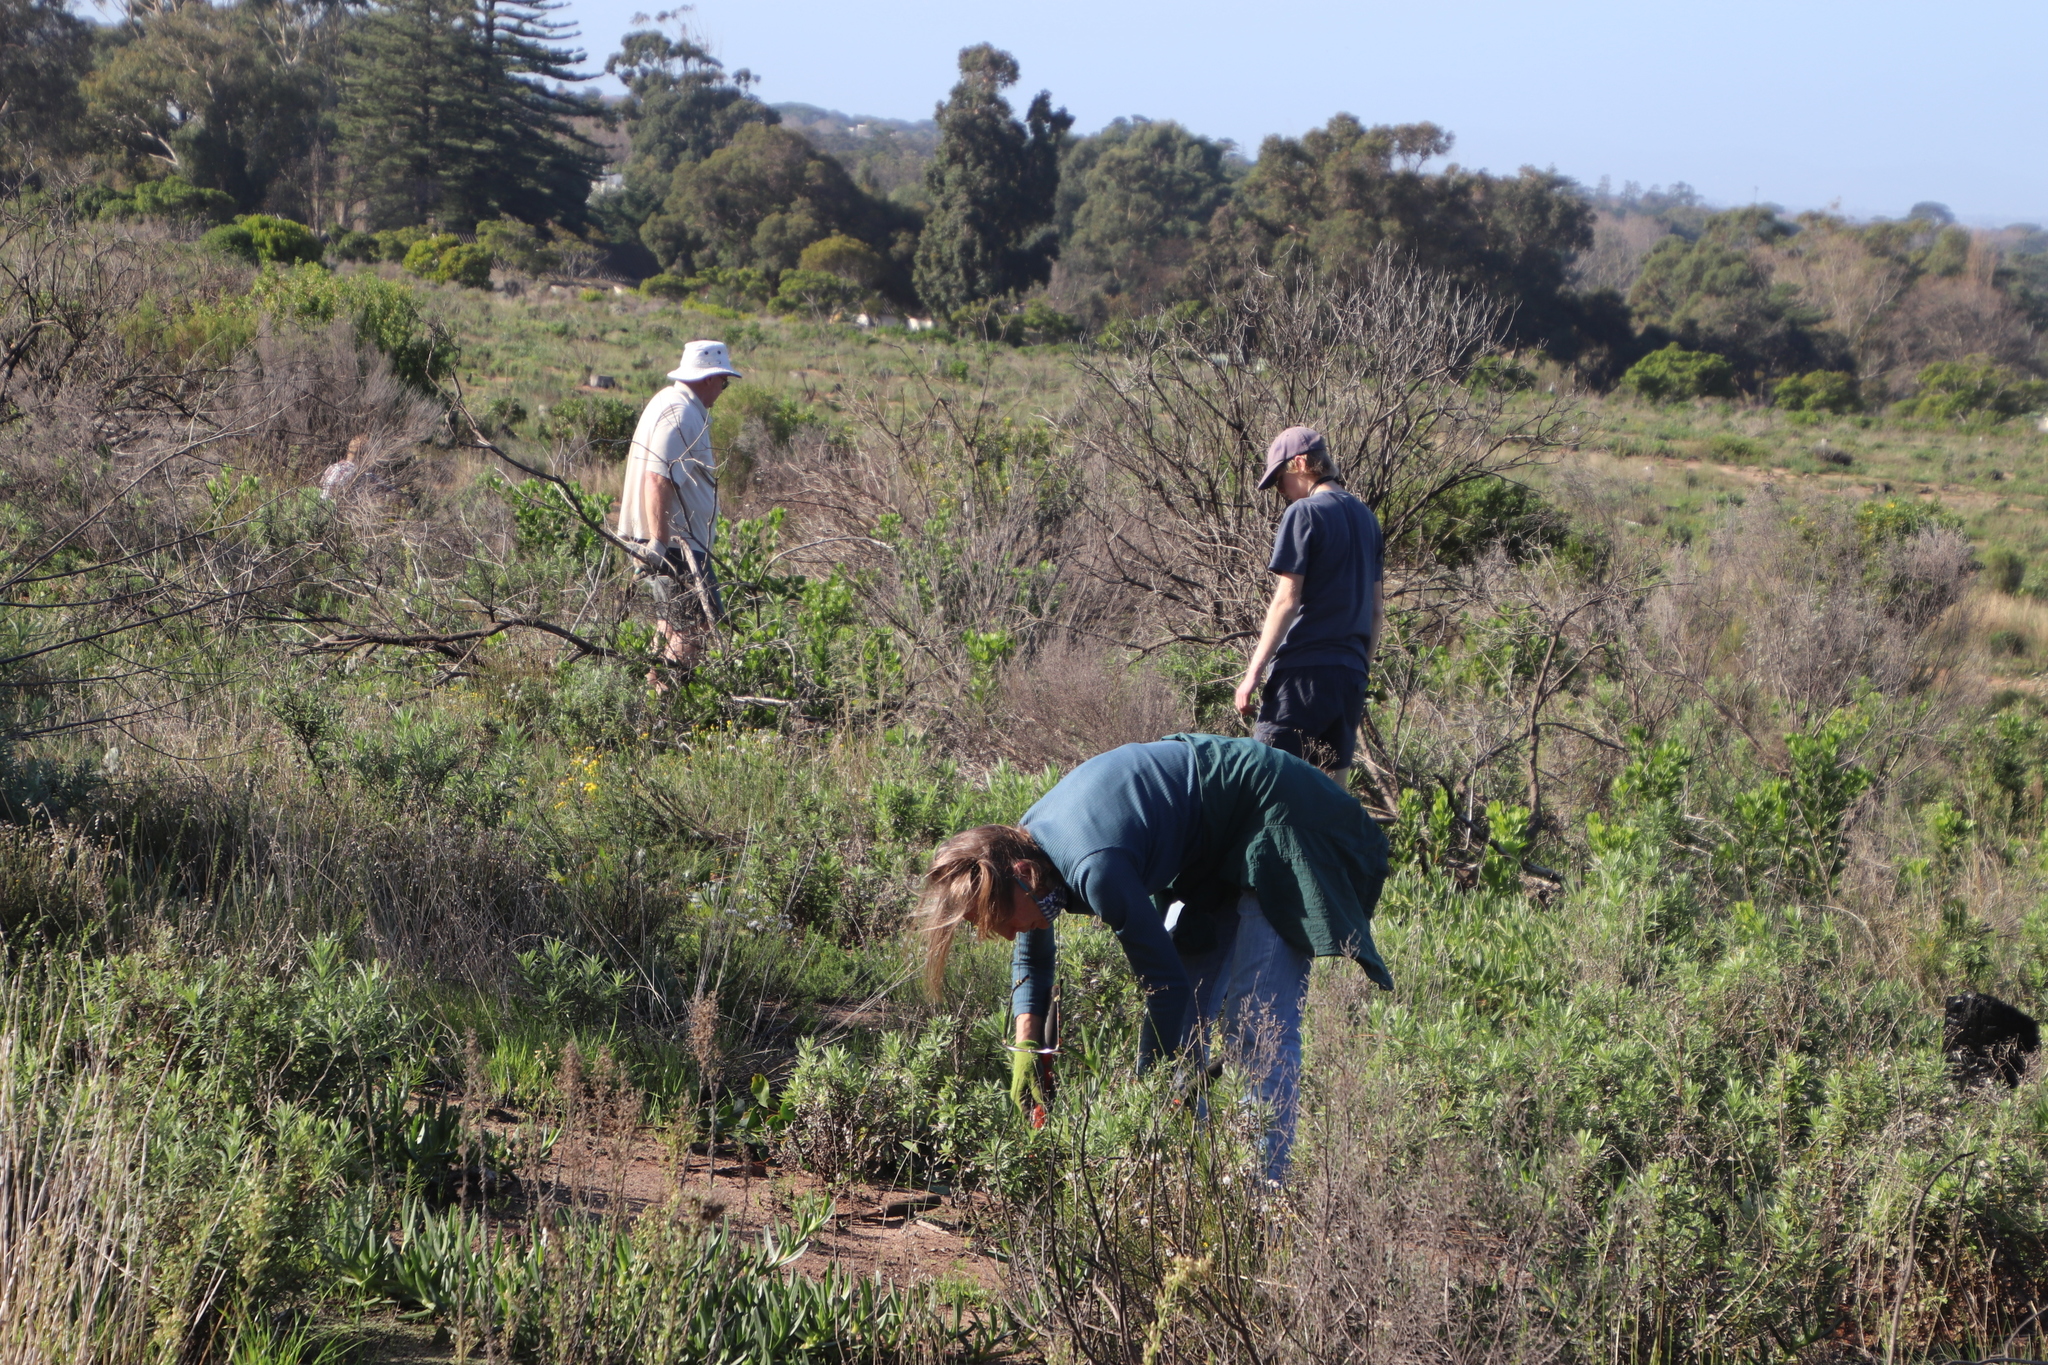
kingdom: Plantae
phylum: Tracheophyta
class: Magnoliopsida
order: Asterales
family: Asteraceae
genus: Senecio
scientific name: Senecio pterophorus
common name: Shoddy ragwort
